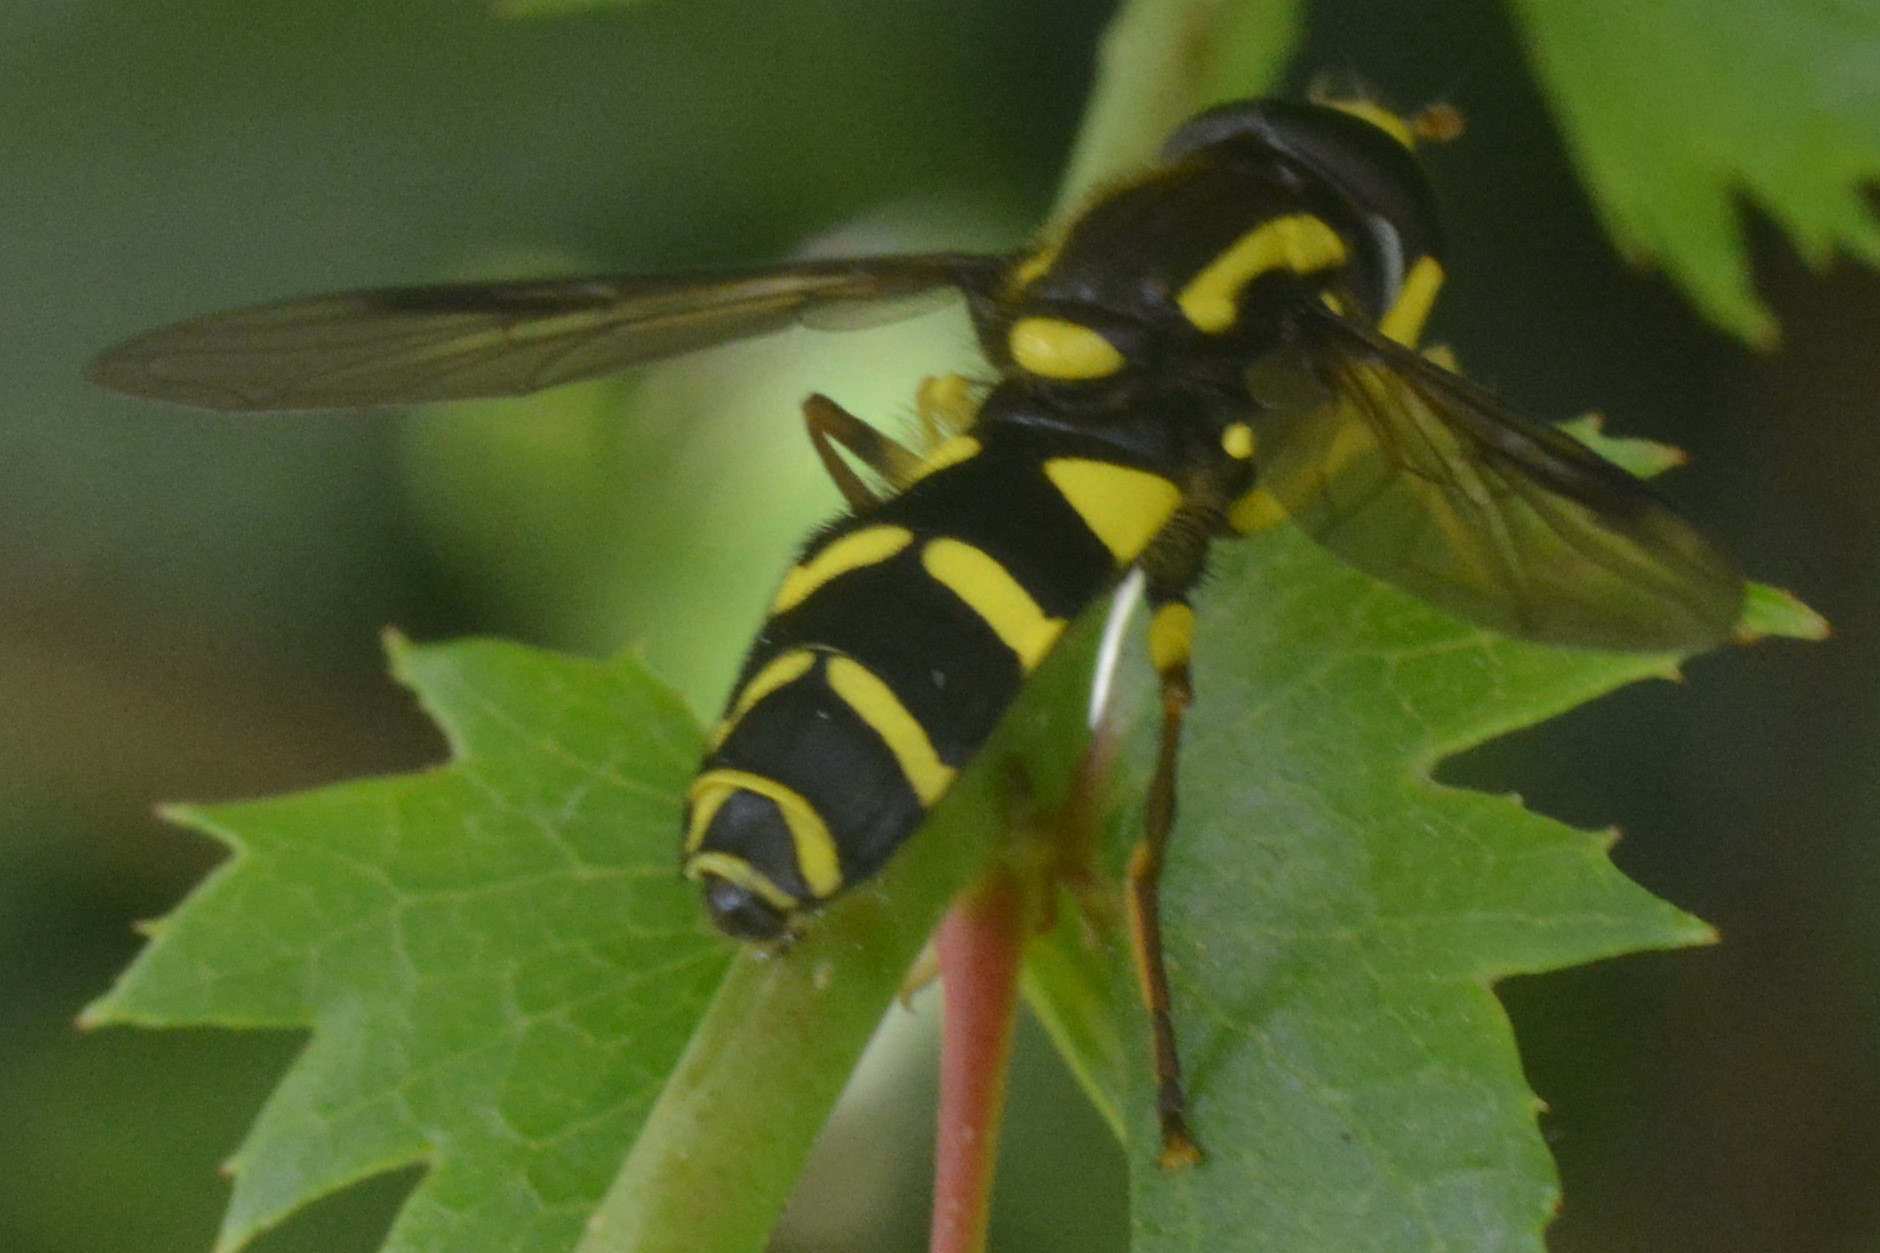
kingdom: Animalia
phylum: Arthropoda
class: Insecta
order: Diptera
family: Syrphidae
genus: Philhelius
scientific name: Philhelius pedissequum
